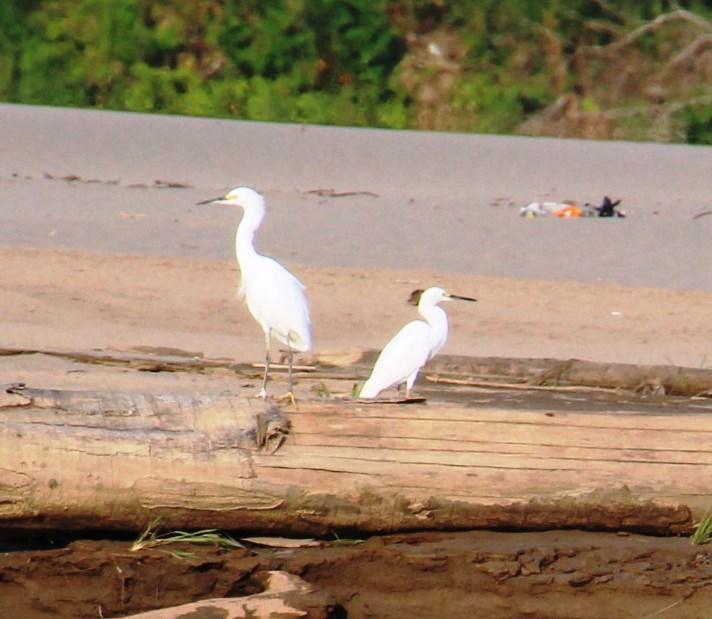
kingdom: Animalia
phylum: Chordata
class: Aves
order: Pelecaniformes
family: Ardeidae
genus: Egretta
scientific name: Egretta thula
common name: Snowy egret
